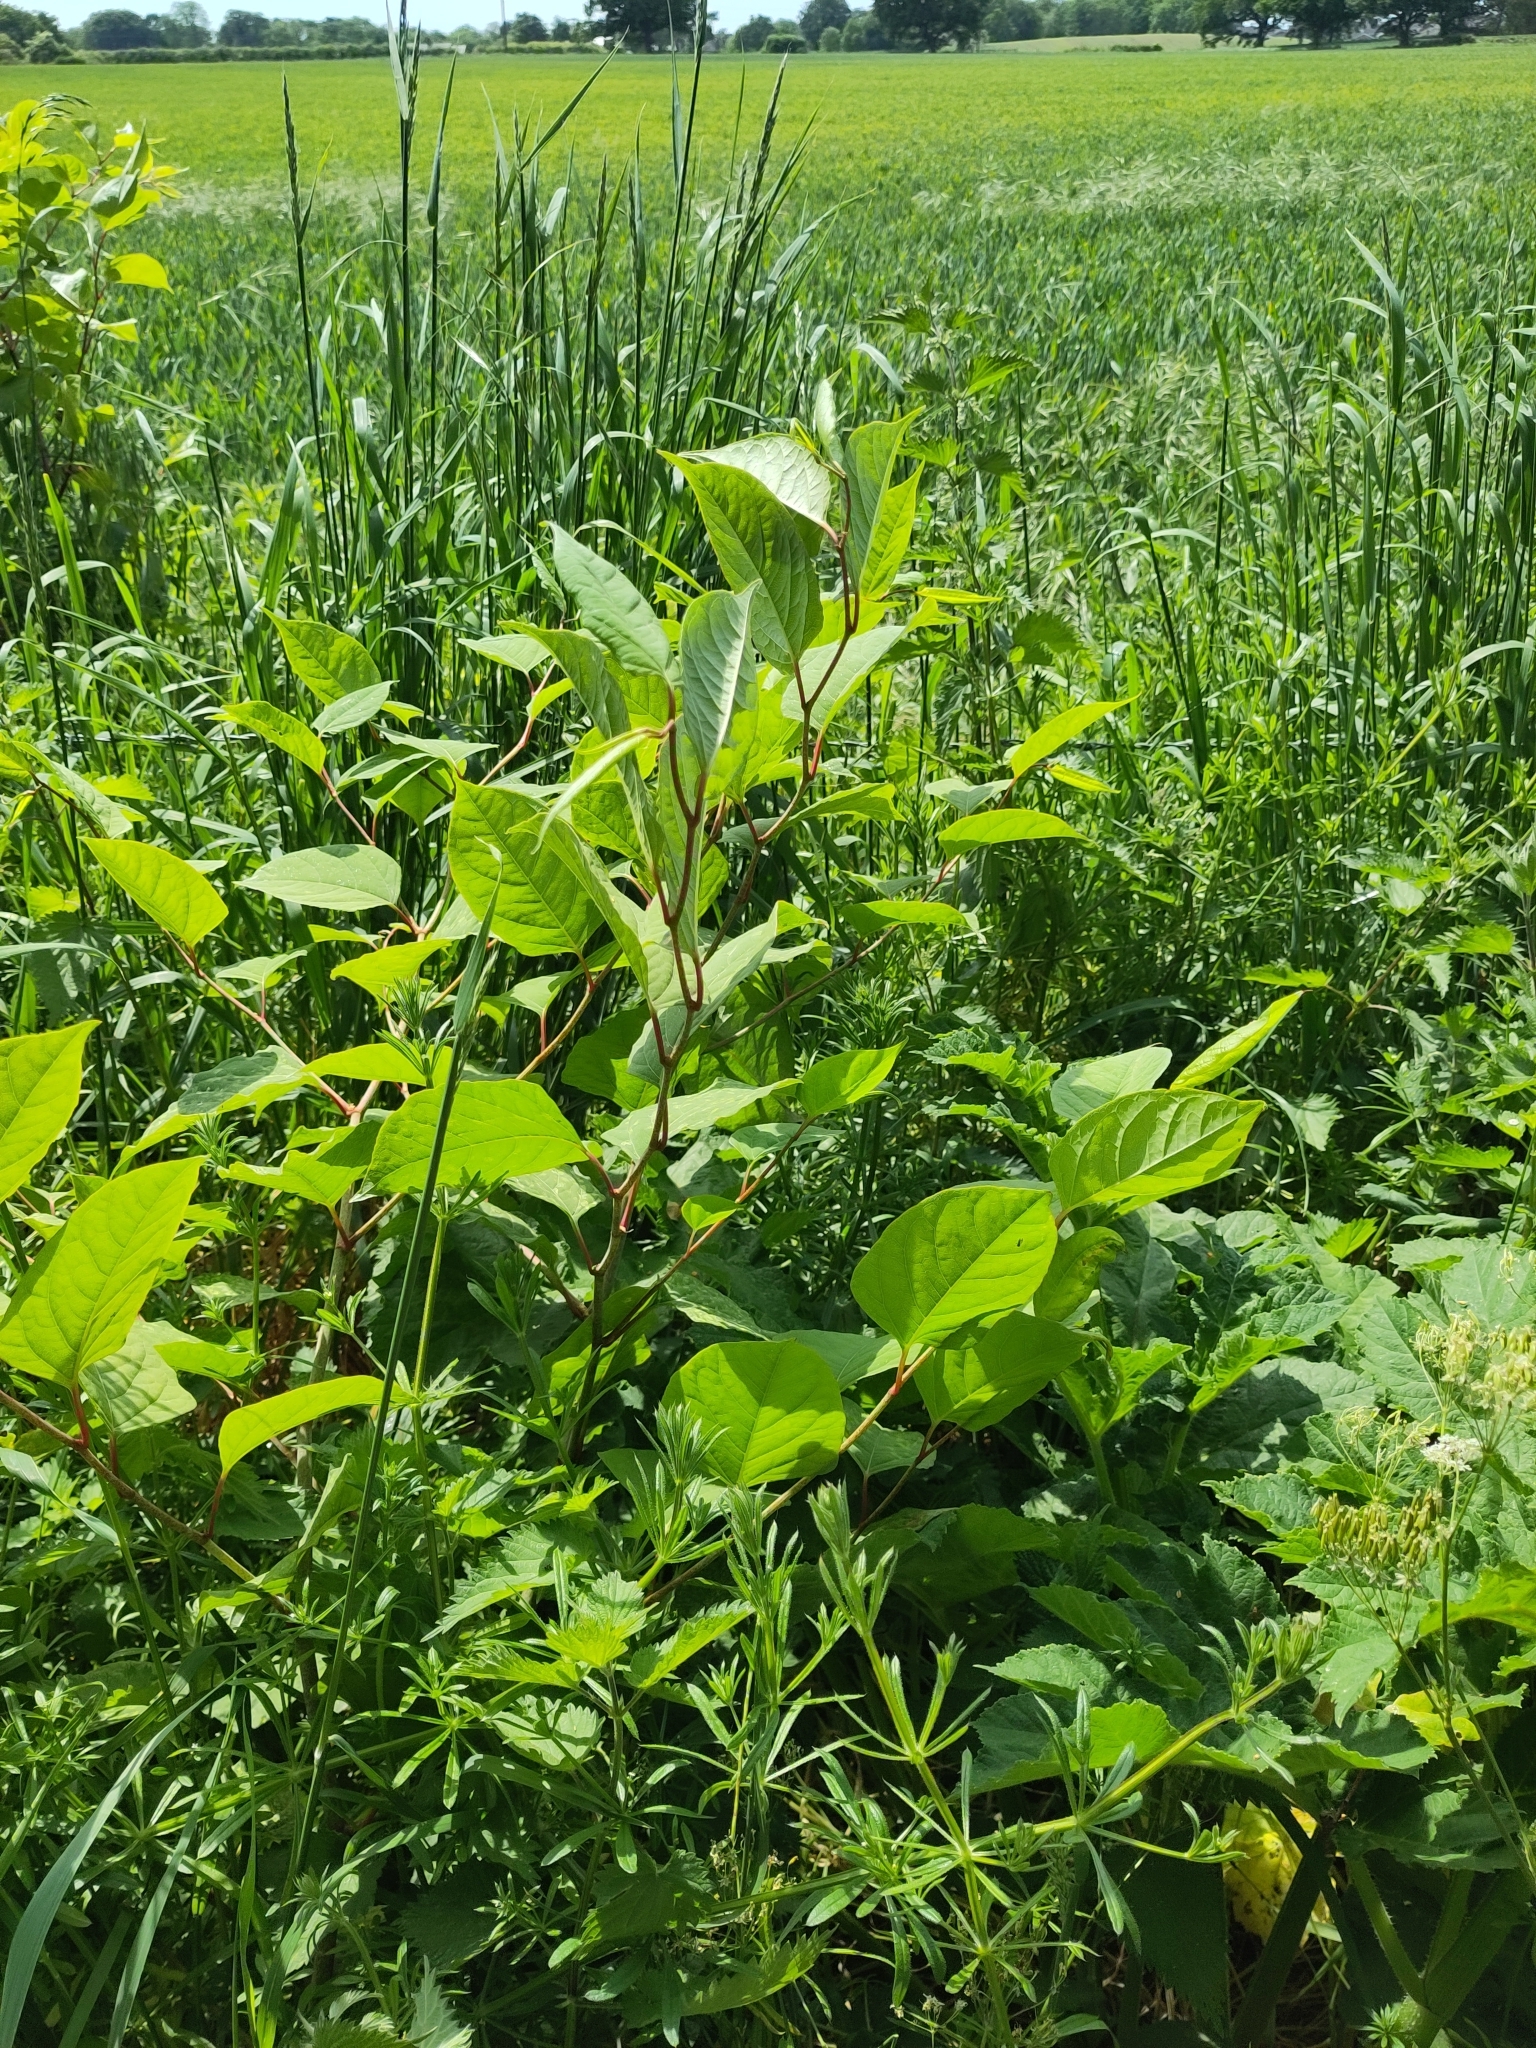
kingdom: Plantae
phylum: Tracheophyta
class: Magnoliopsida
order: Caryophyllales
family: Polygonaceae
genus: Reynoutria
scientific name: Reynoutria japonica
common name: Japanese knotweed
